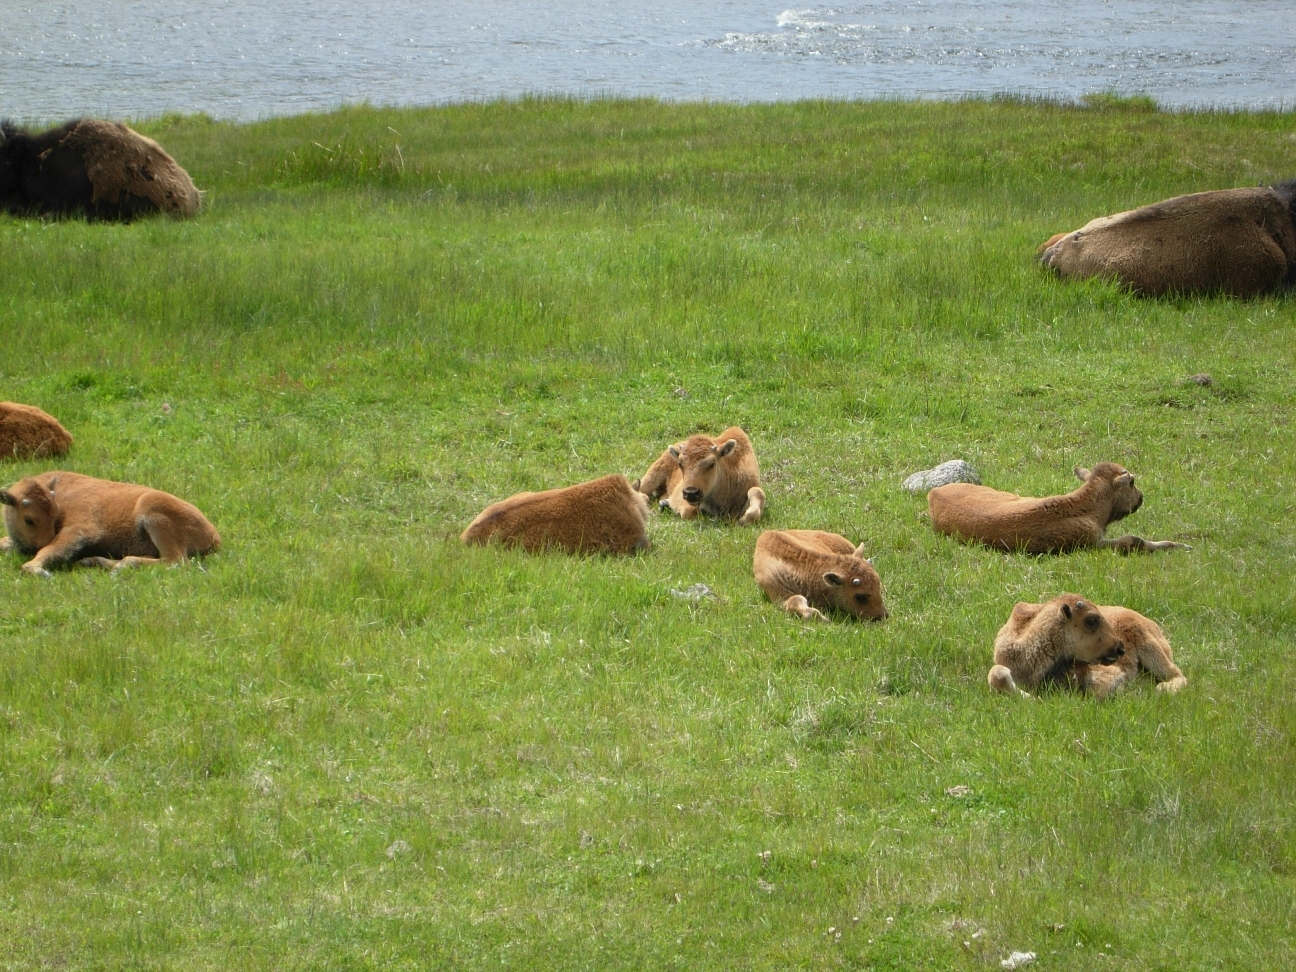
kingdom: Animalia
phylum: Chordata
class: Mammalia
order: Artiodactyla
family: Bovidae
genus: Bison
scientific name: Bison bison
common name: American bison
